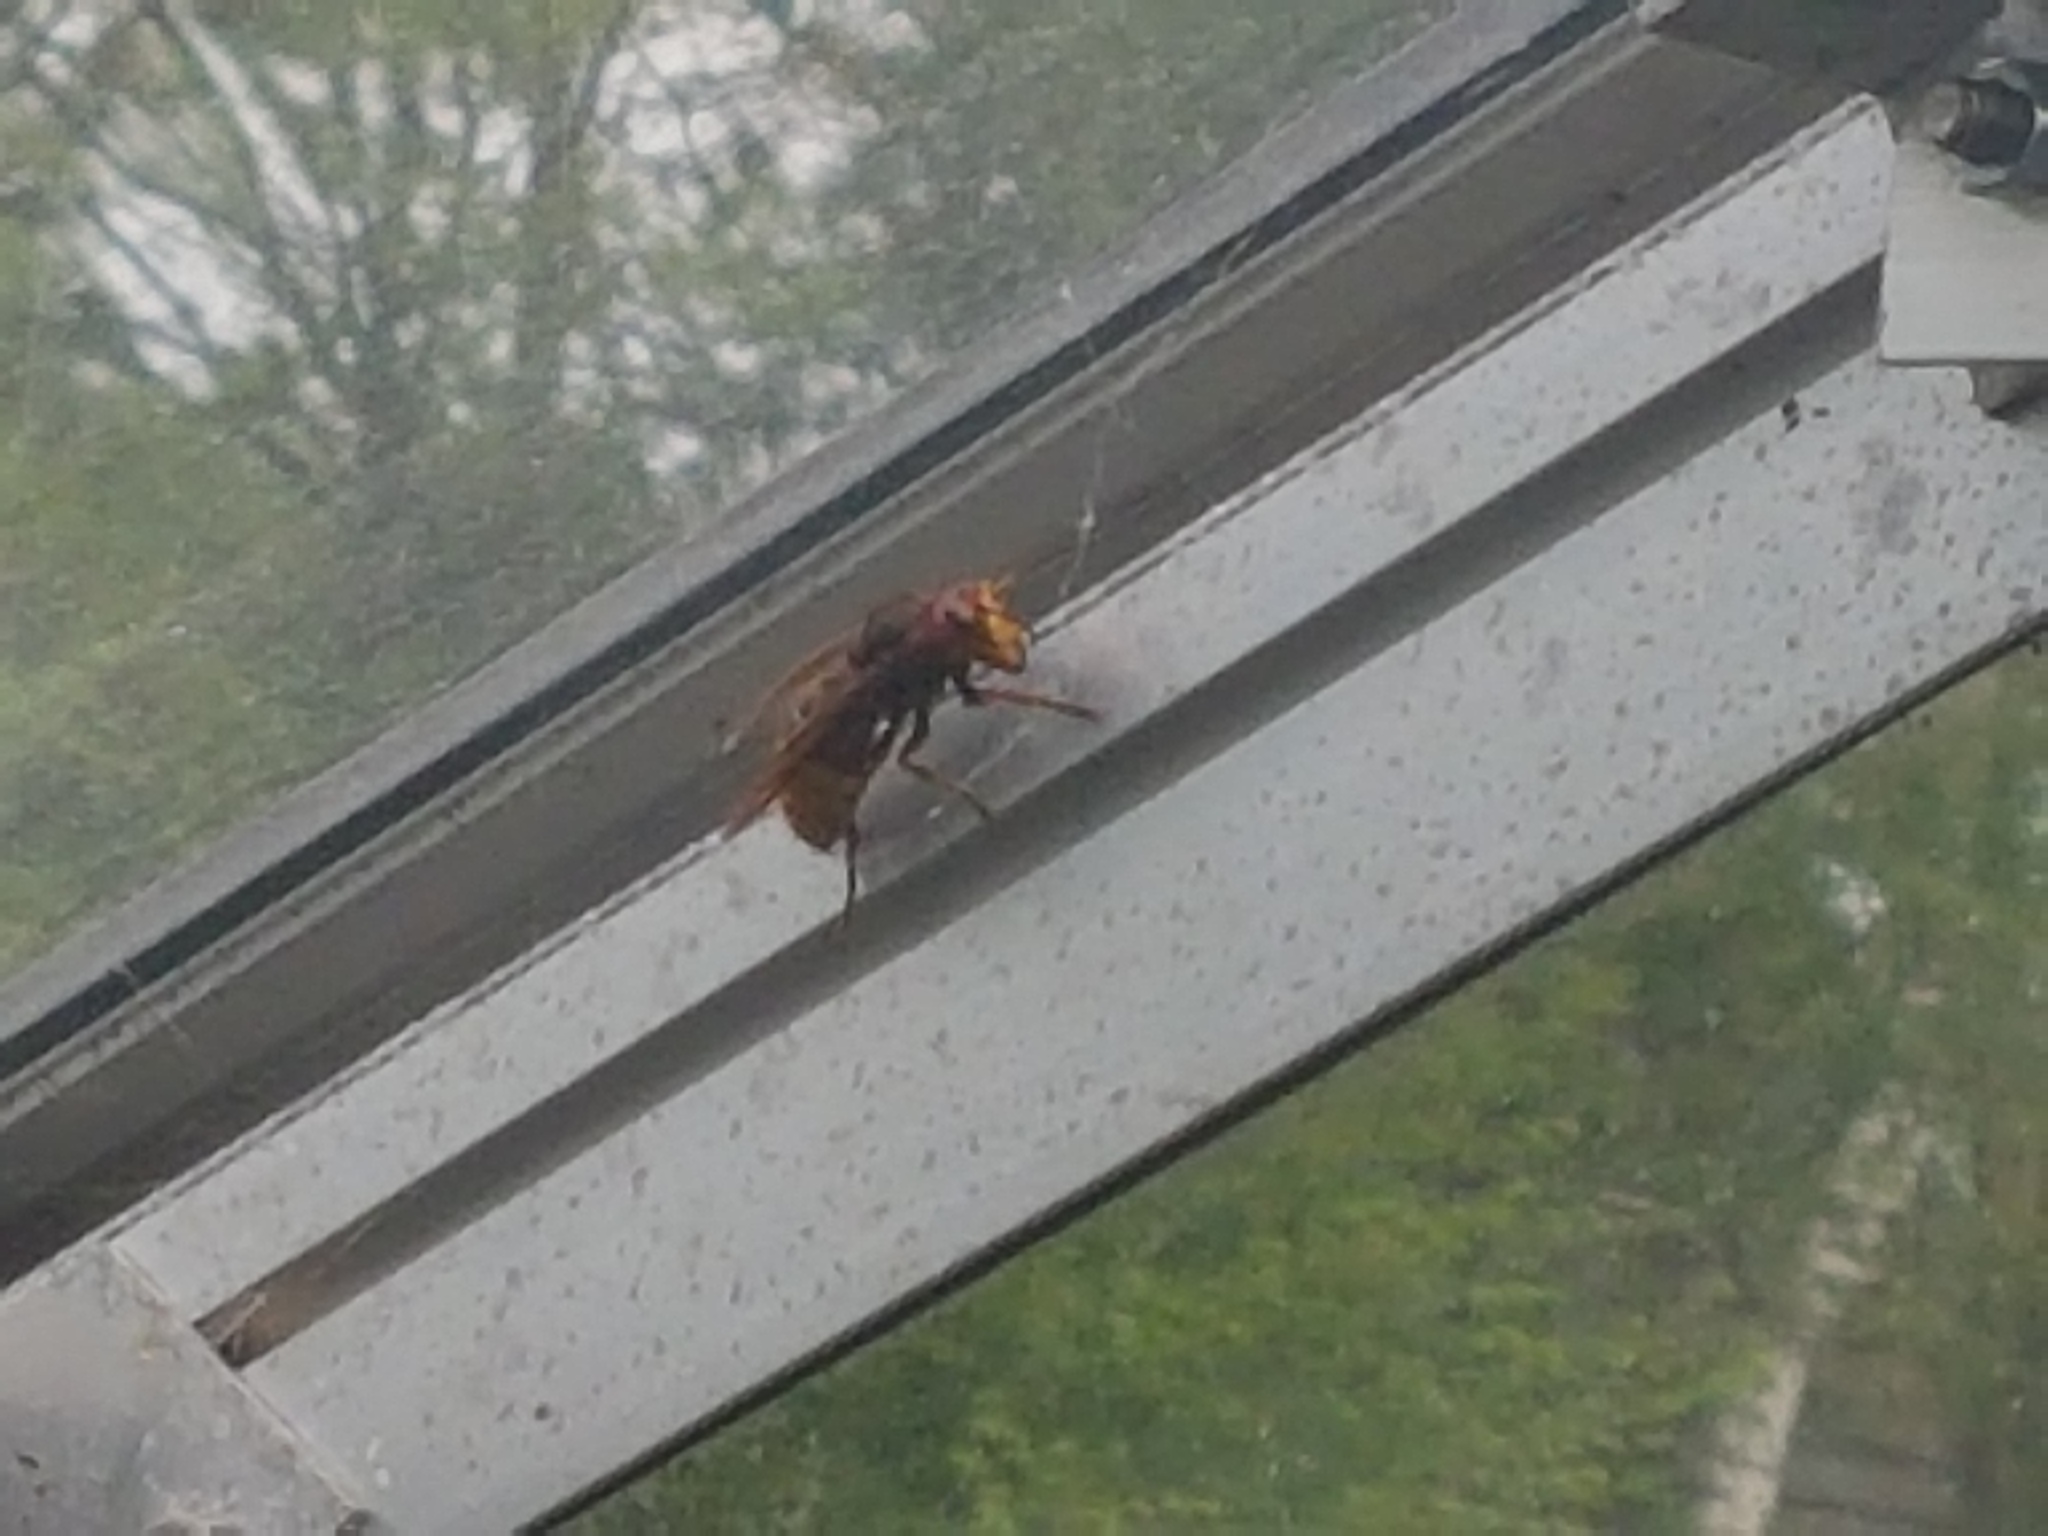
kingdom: Animalia
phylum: Arthropoda
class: Insecta
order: Hymenoptera
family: Vespidae
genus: Vespa
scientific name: Vespa crabro
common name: Hornet
